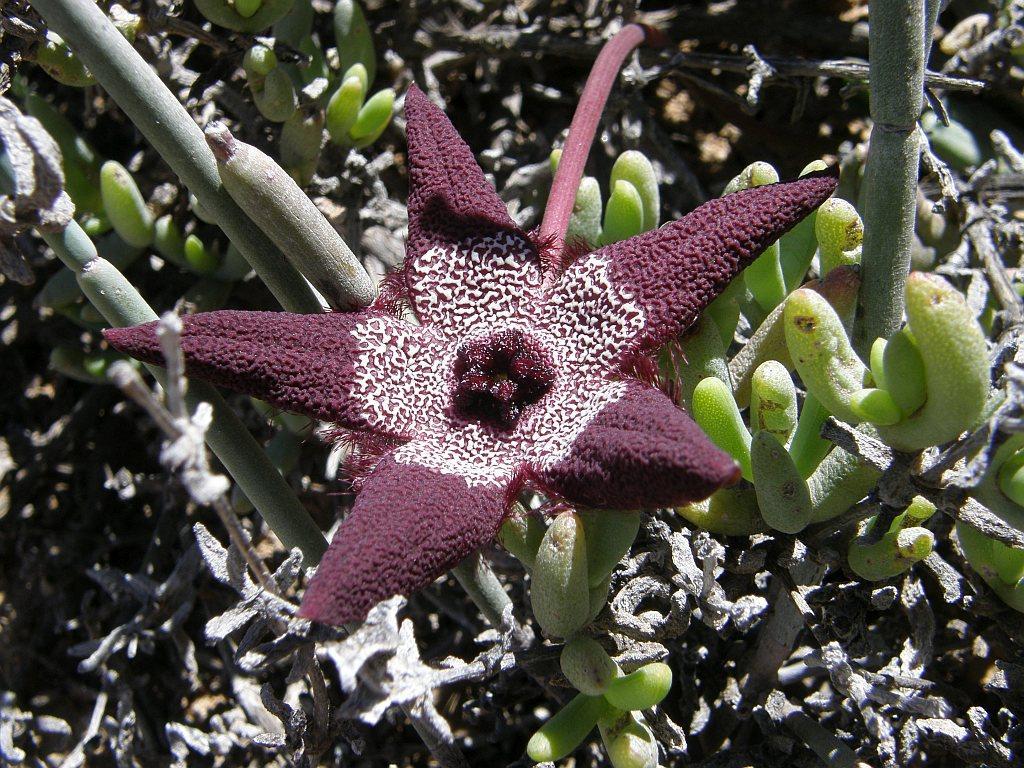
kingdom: Plantae
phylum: Tracheophyta
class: Magnoliopsida
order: Gentianales
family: Apocynaceae
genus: Ceropegia
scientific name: Ceropegia penduliflora
